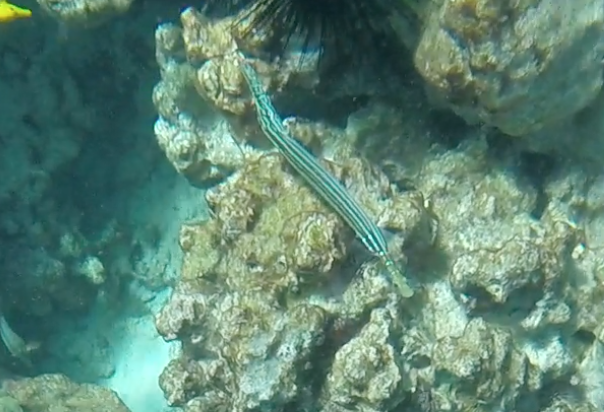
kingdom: Animalia
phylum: Chordata
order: Syngnathiformes
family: Aulostomidae
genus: Aulostomus
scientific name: Aulostomus chinensis
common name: Chinese trumpetfish
